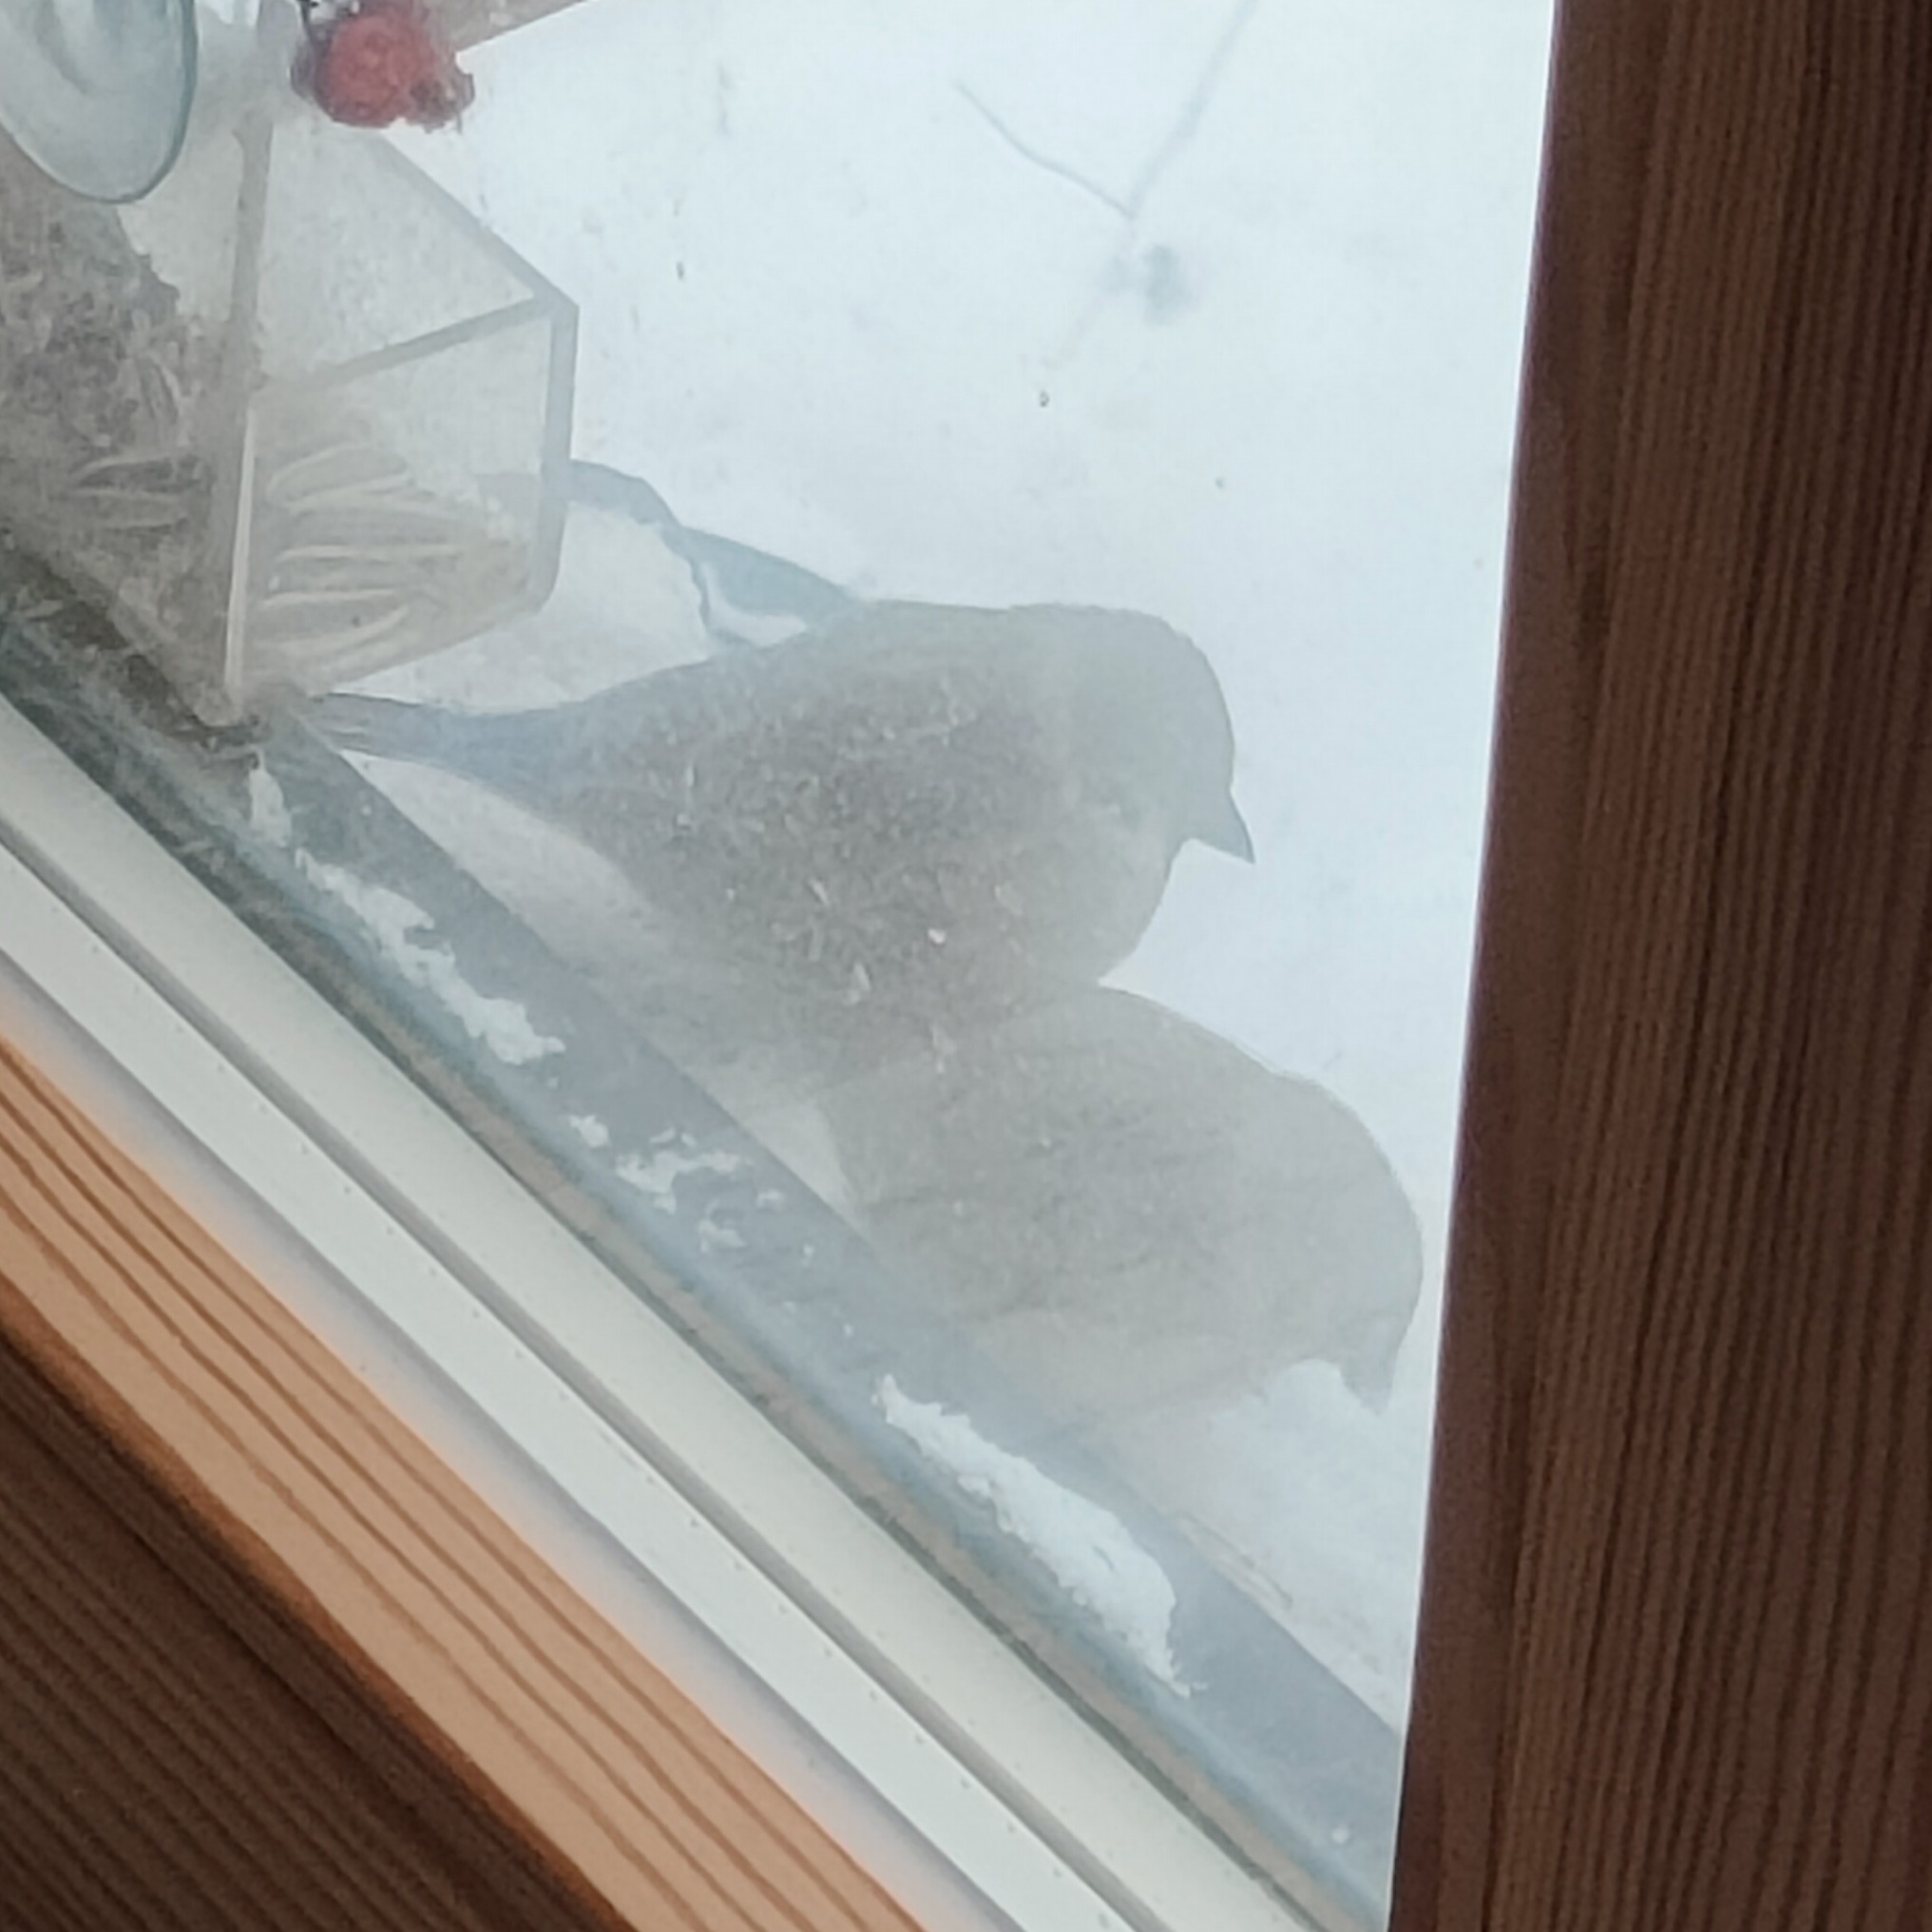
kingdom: Animalia
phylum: Chordata
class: Aves
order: Passeriformes
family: Passeridae
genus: Passer
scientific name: Passer montanus
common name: Eurasian tree sparrow
